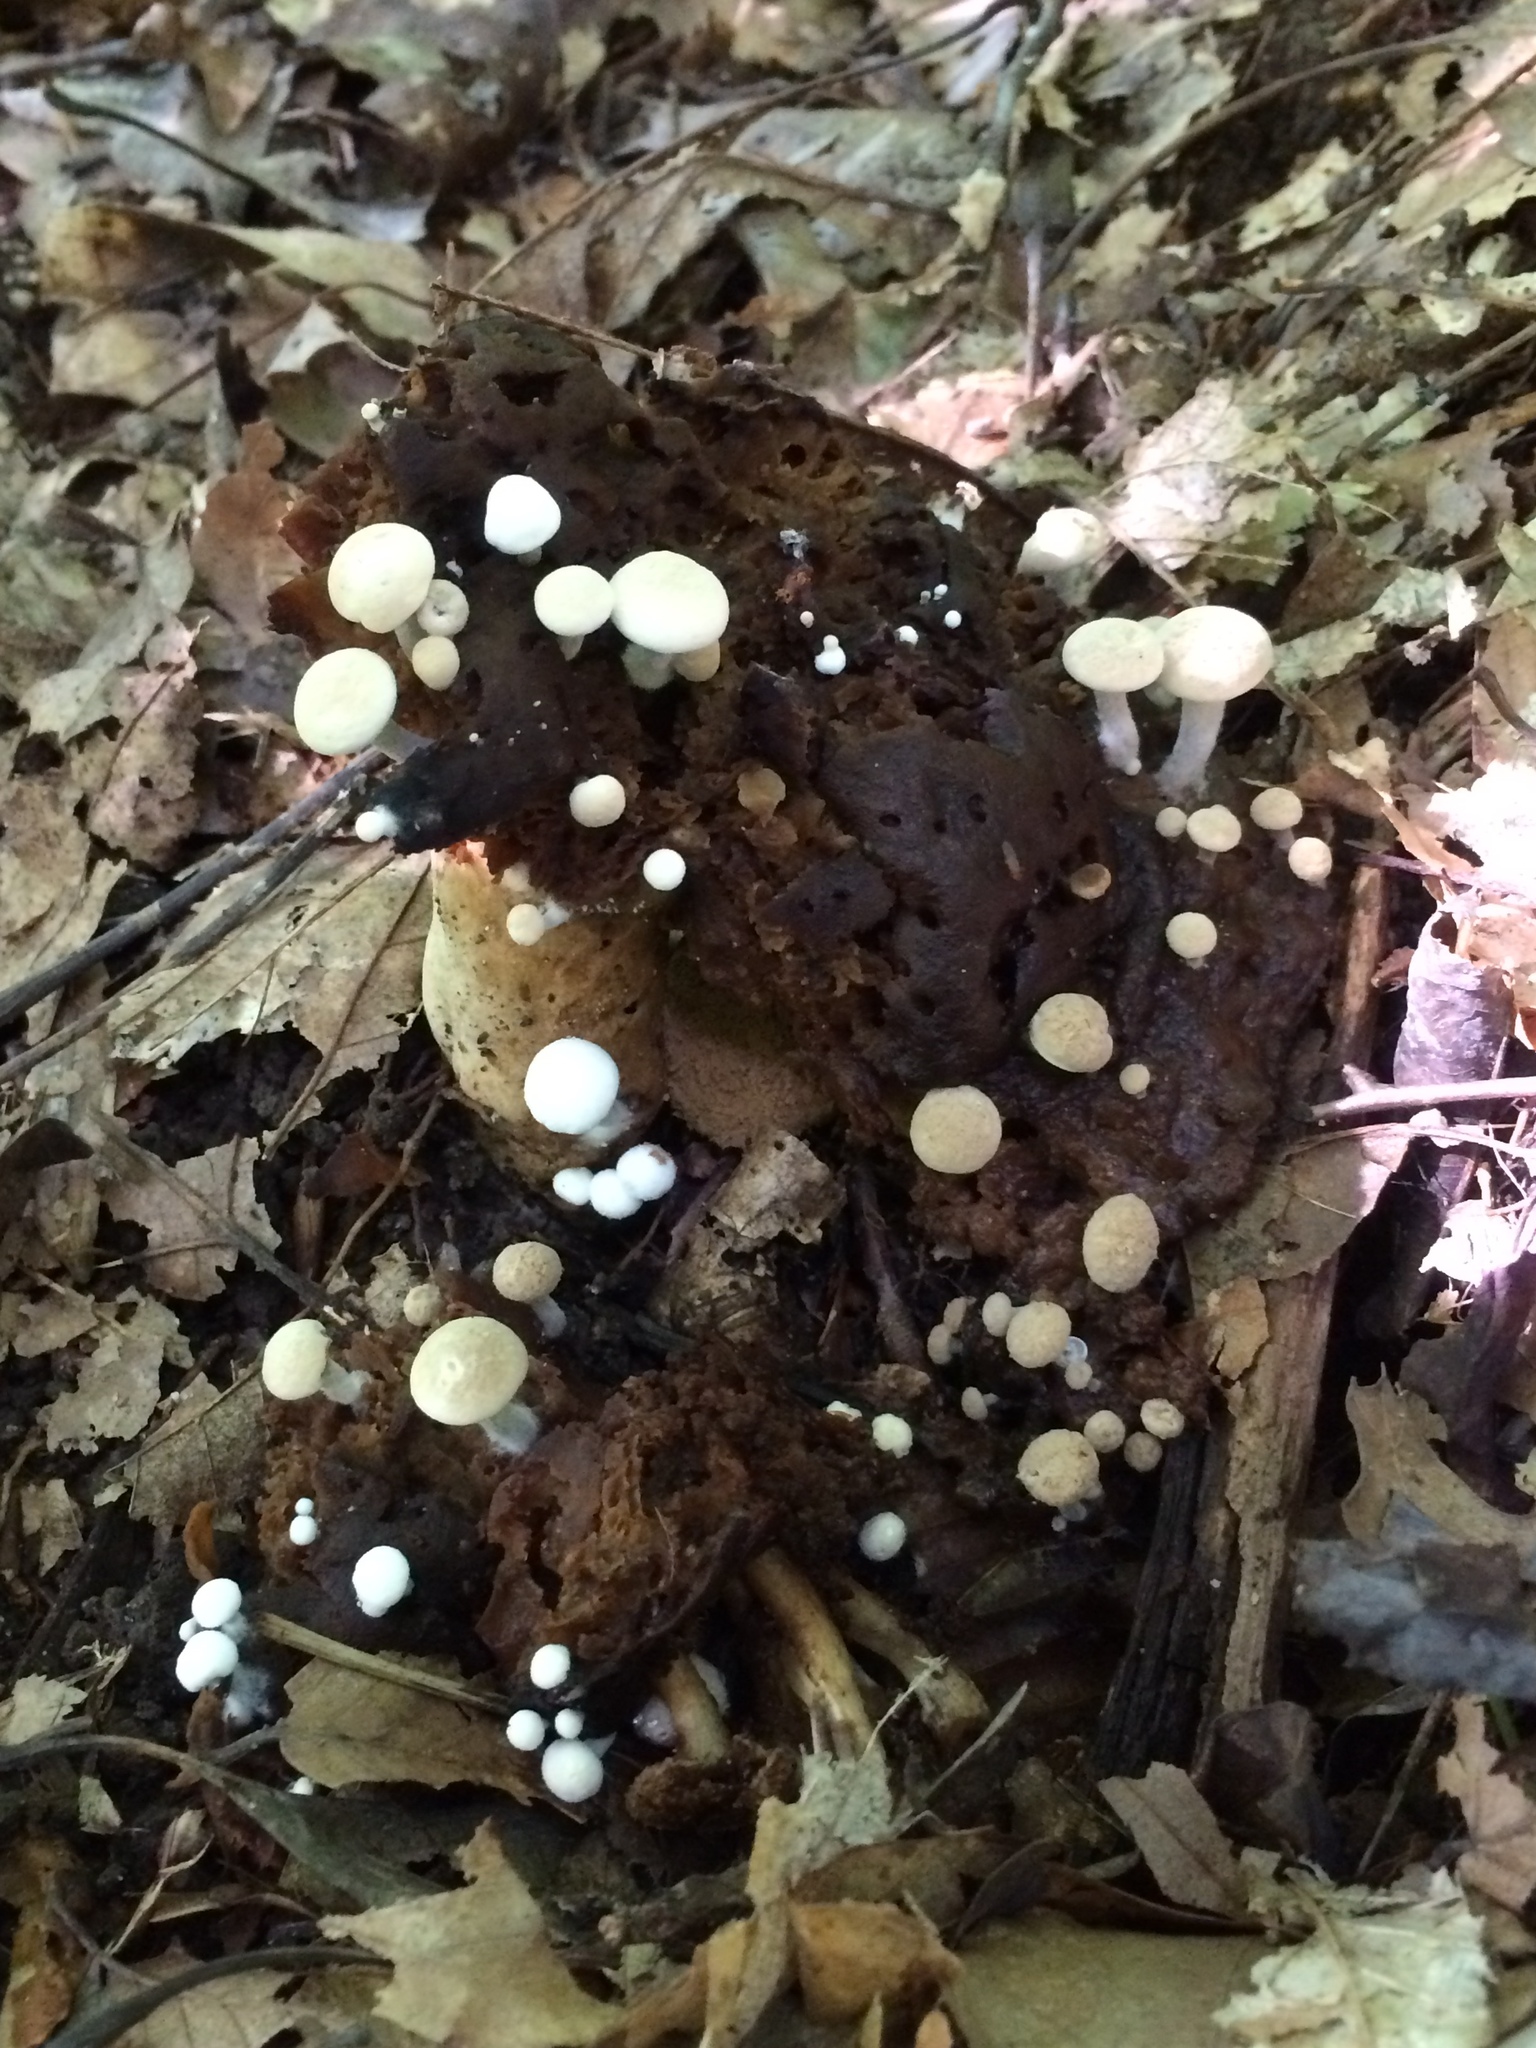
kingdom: Fungi
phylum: Basidiomycota
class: Agaricomycetes
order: Agaricales
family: Lyophyllaceae
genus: Asterophora
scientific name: Asterophora lycoperdoides
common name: Pick-a-back toadstool
